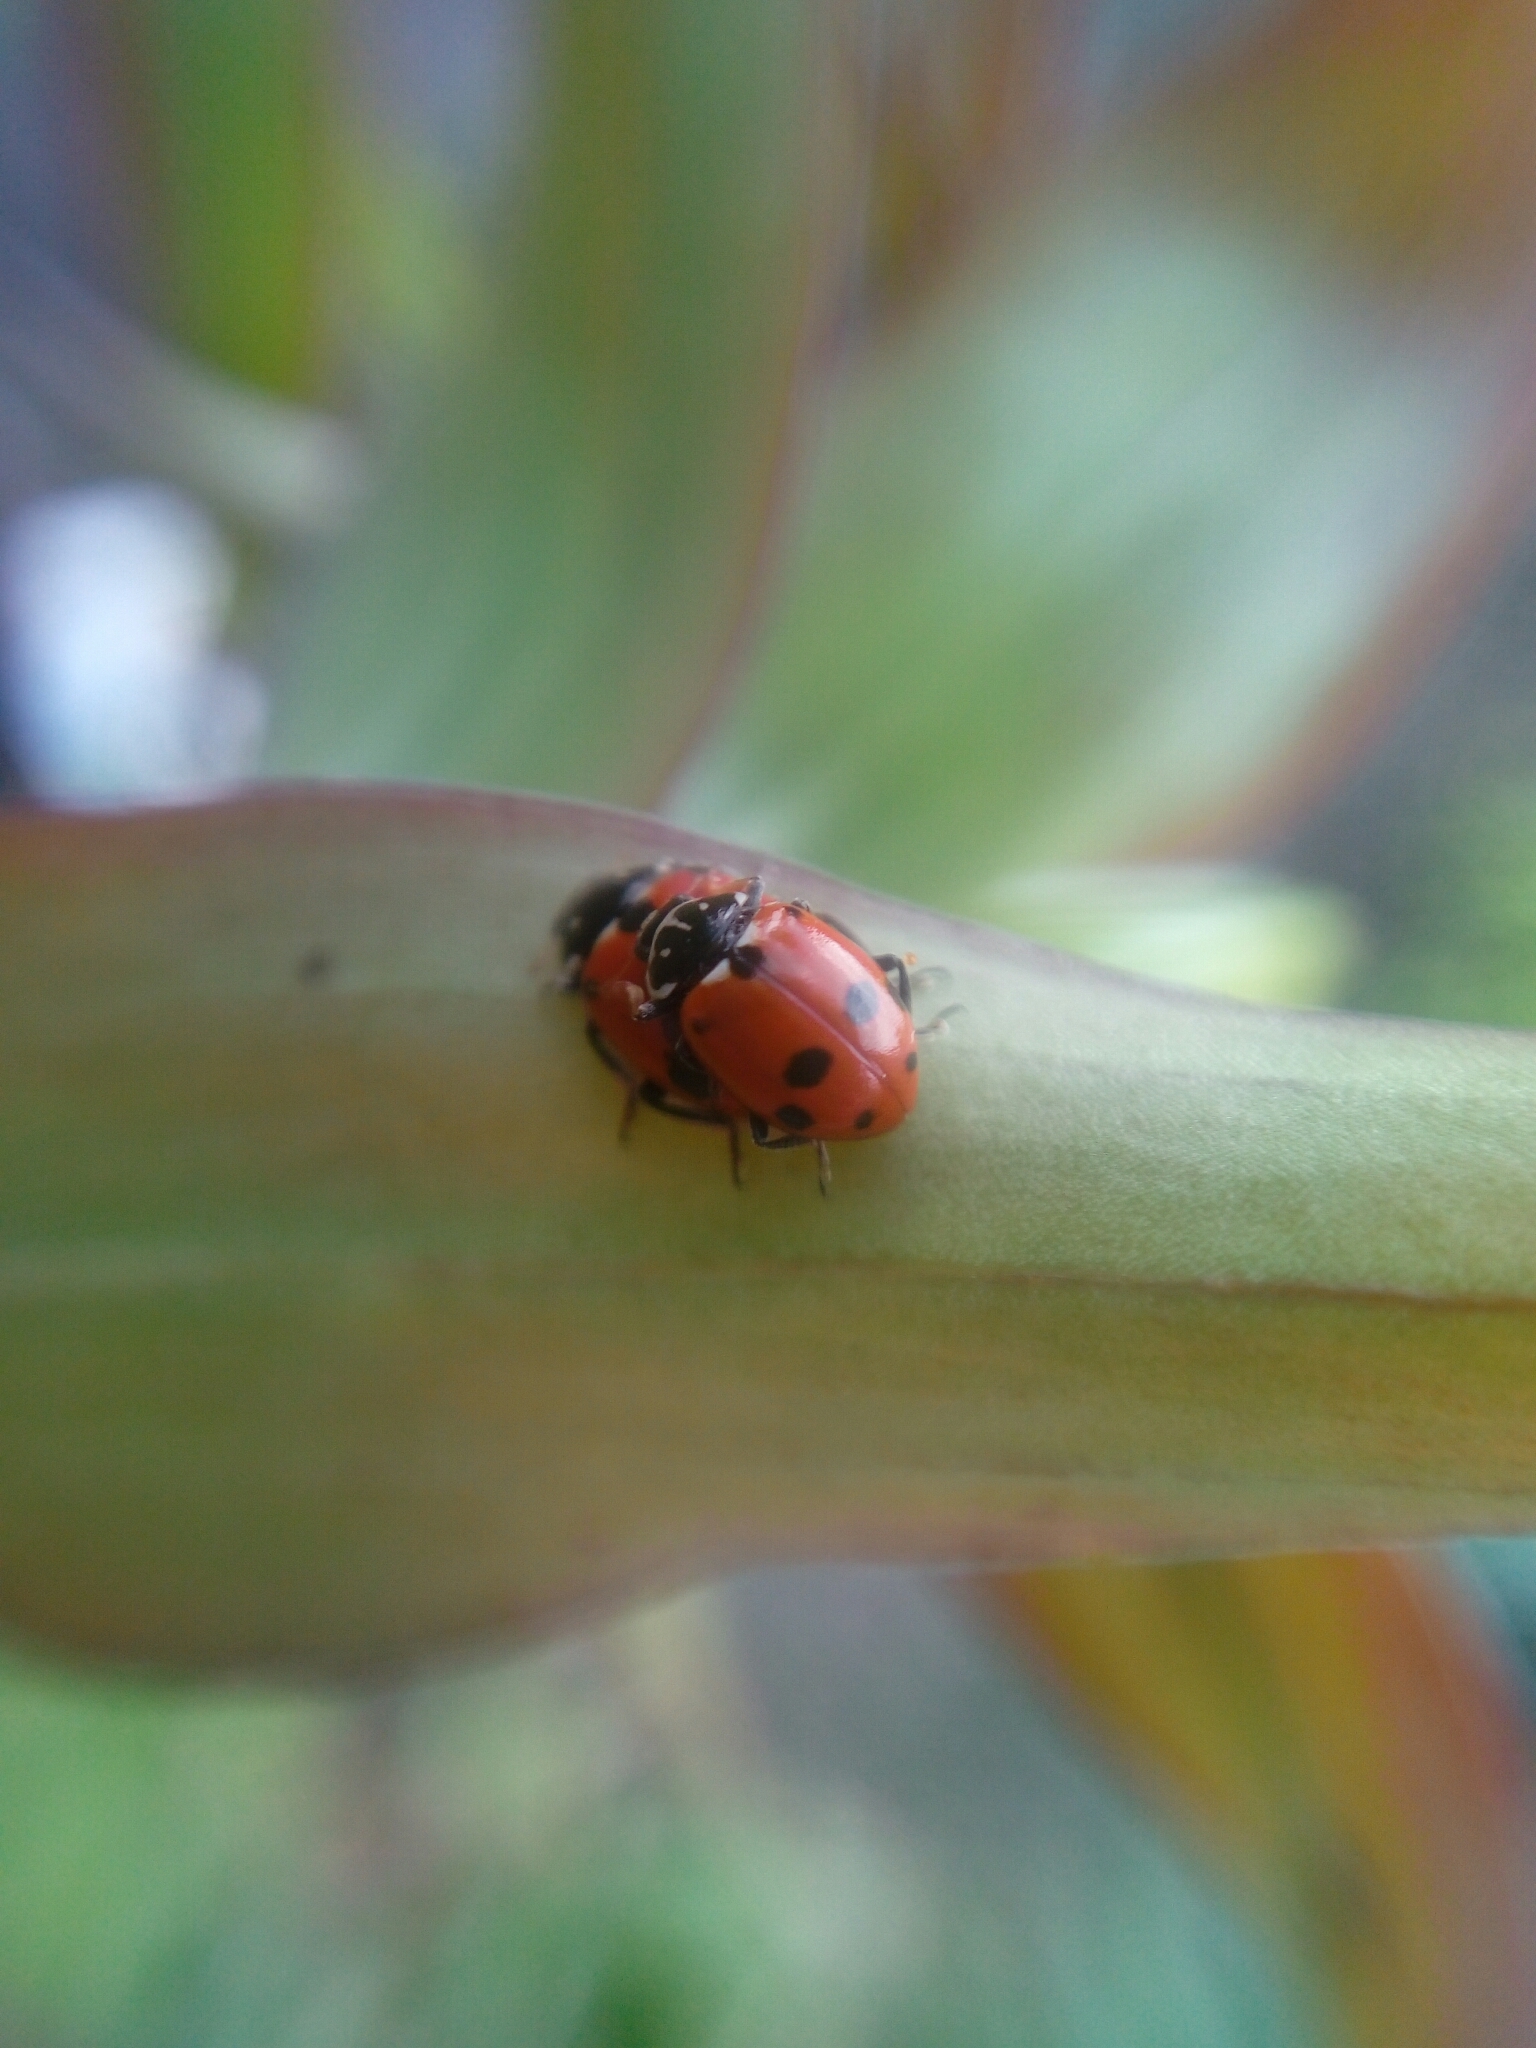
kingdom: Animalia
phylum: Arthropoda
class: Insecta
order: Coleoptera
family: Coccinellidae
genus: Hippodamia
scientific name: Hippodamia variegata
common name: Ladybird beetle
